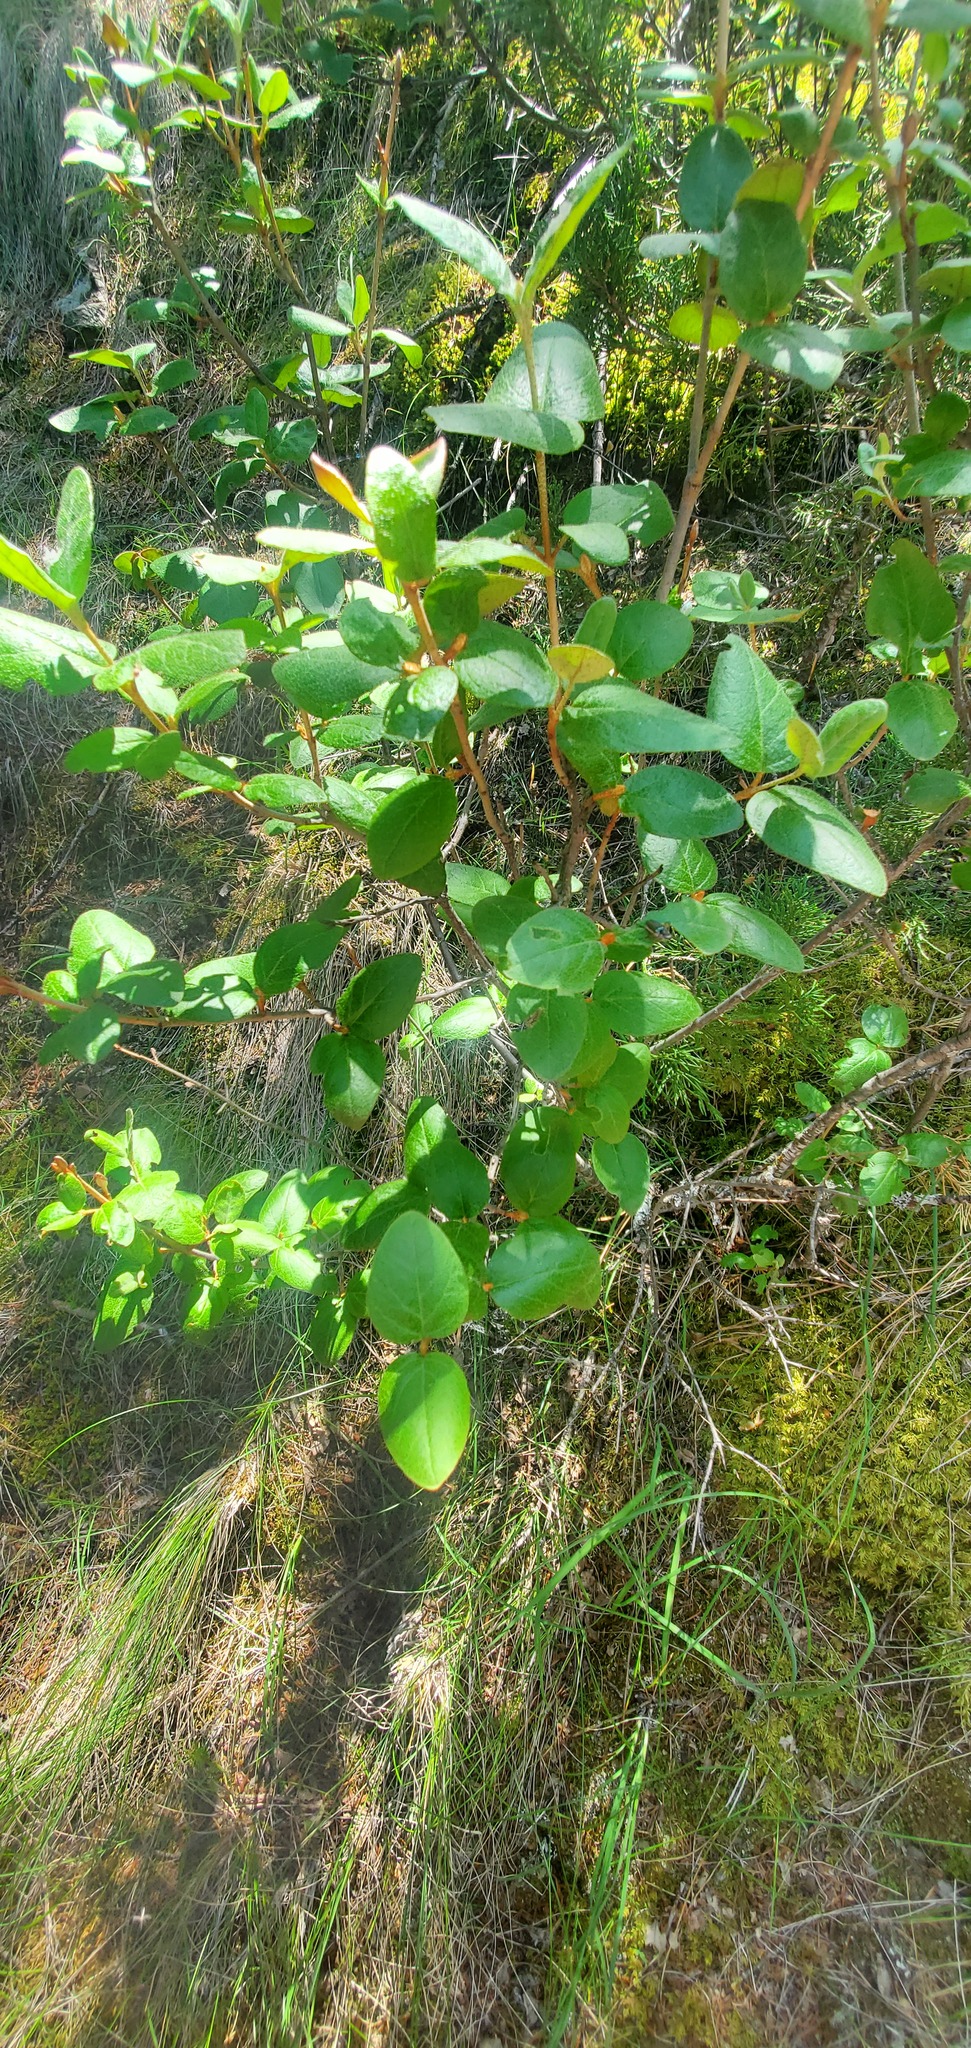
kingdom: Plantae
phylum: Tracheophyta
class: Magnoliopsida
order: Rosales
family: Elaeagnaceae
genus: Shepherdia
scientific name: Shepherdia canadensis
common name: Soapberry
